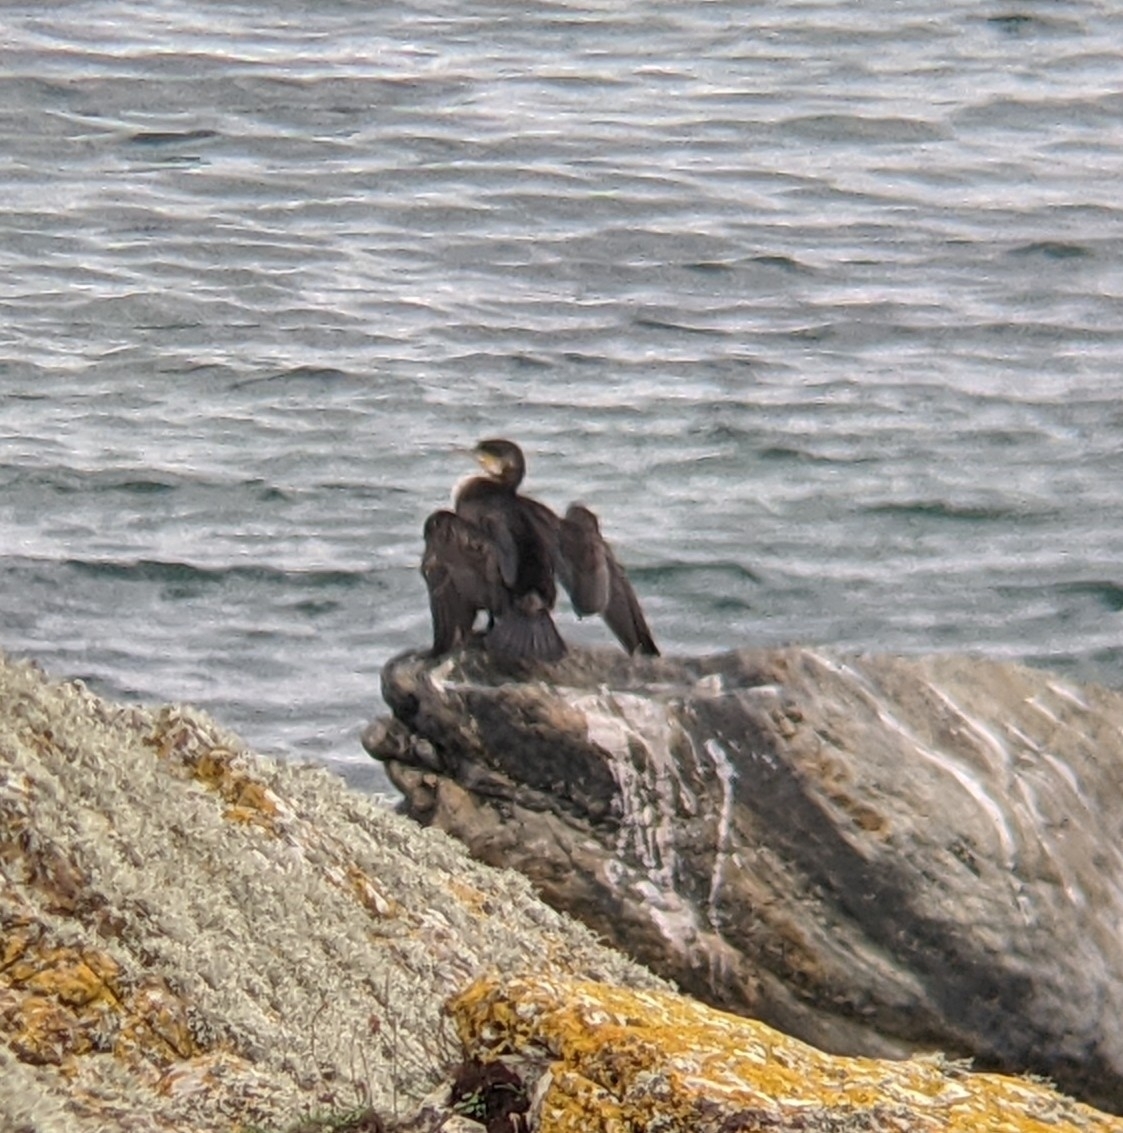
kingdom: Animalia
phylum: Chordata
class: Aves
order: Suliformes
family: Phalacrocoracidae
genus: Phalacrocorax
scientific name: Phalacrocorax carbo
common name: Great cormorant
